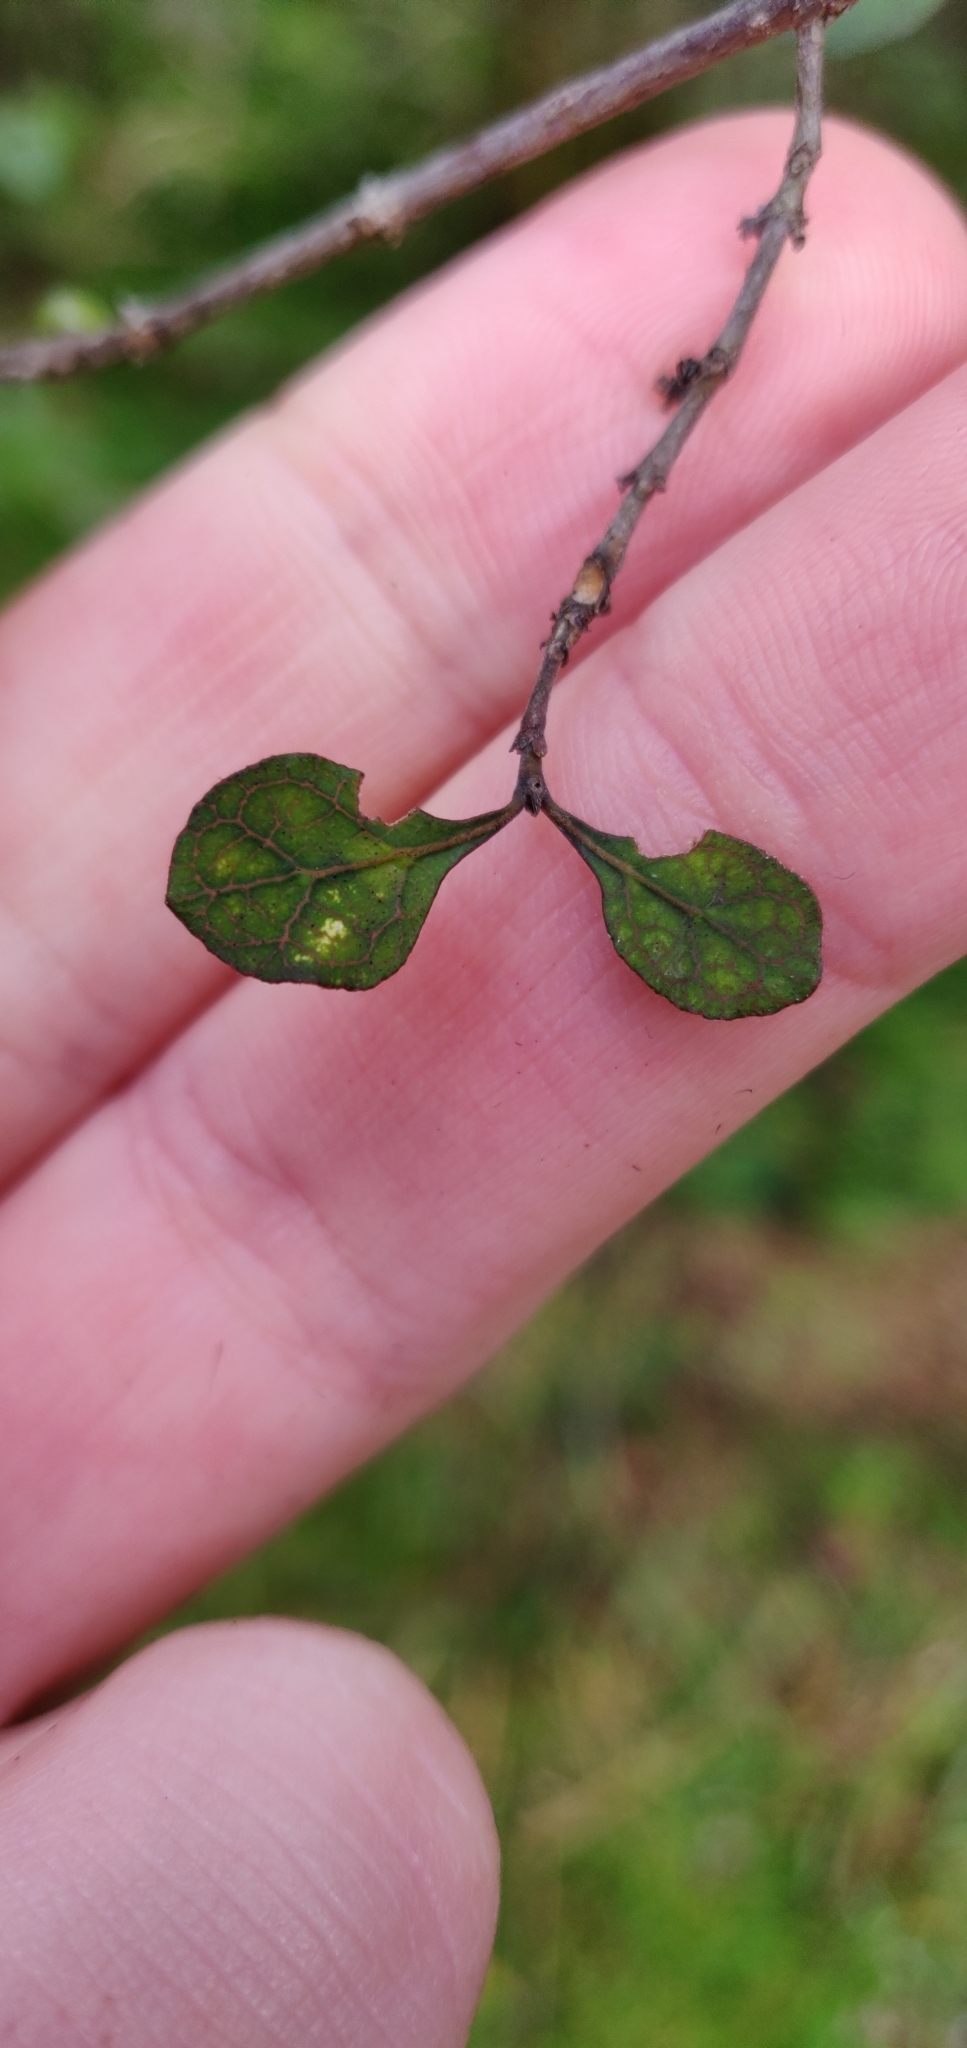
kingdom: Plantae
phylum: Tracheophyta
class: Magnoliopsida
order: Gentianales
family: Rubiaceae
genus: Coprosma
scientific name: Coprosma tenuicaulis
